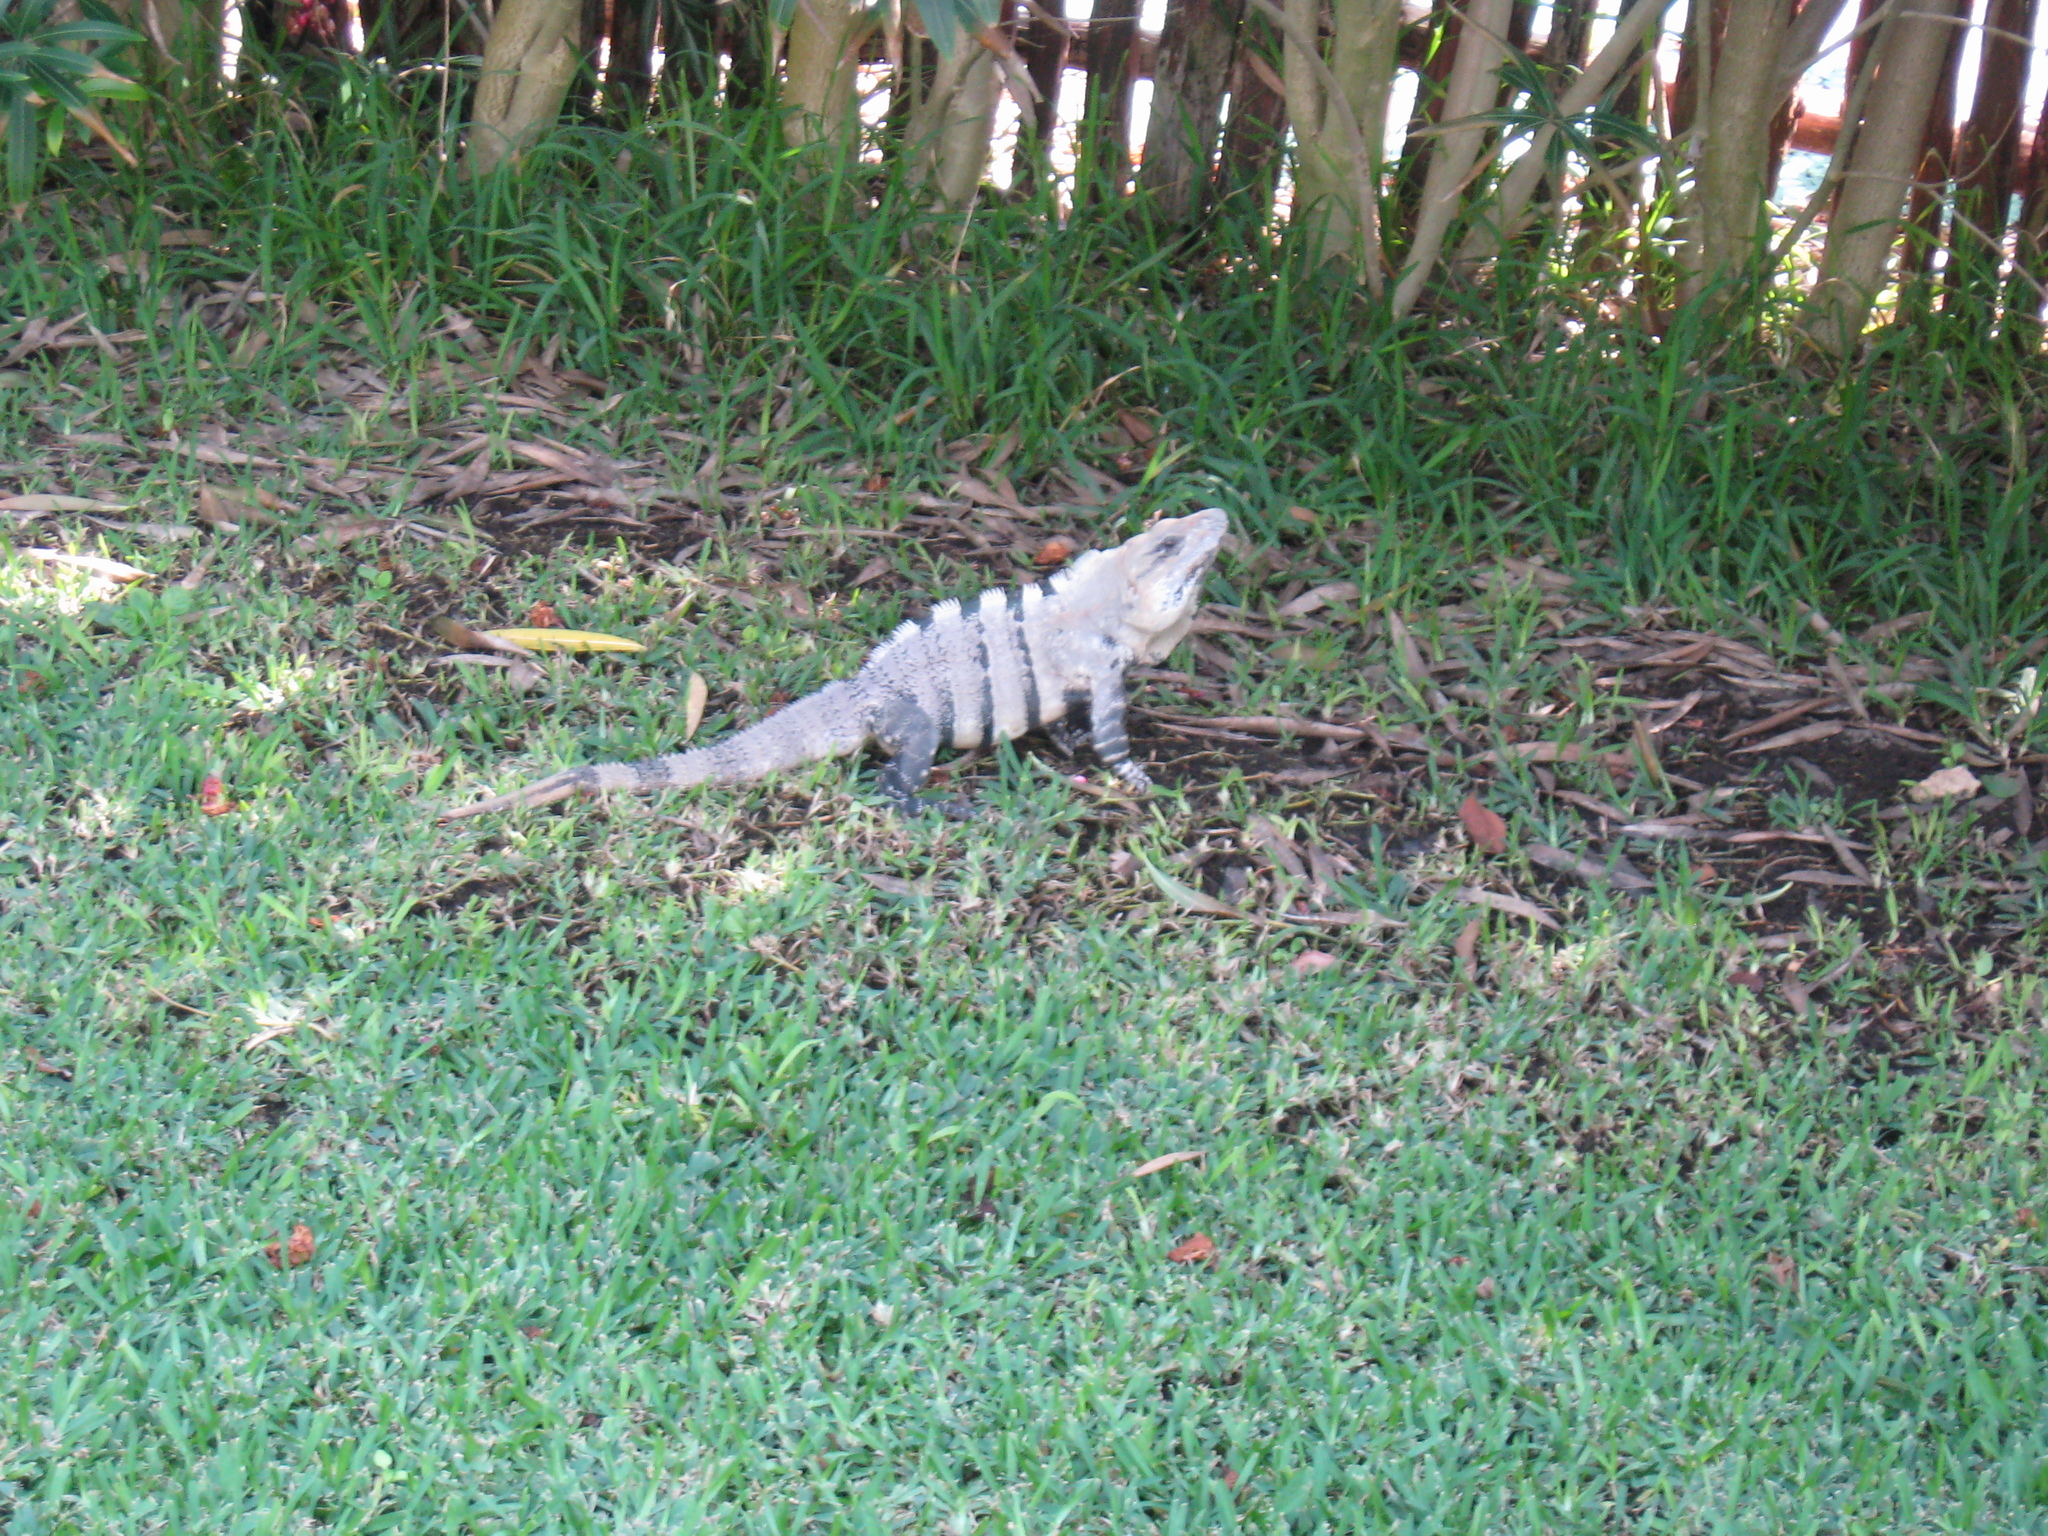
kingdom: Animalia
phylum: Chordata
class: Squamata
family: Iguanidae
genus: Ctenosaura
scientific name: Ctenosaura similis
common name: Black spiny-tailed iguana
